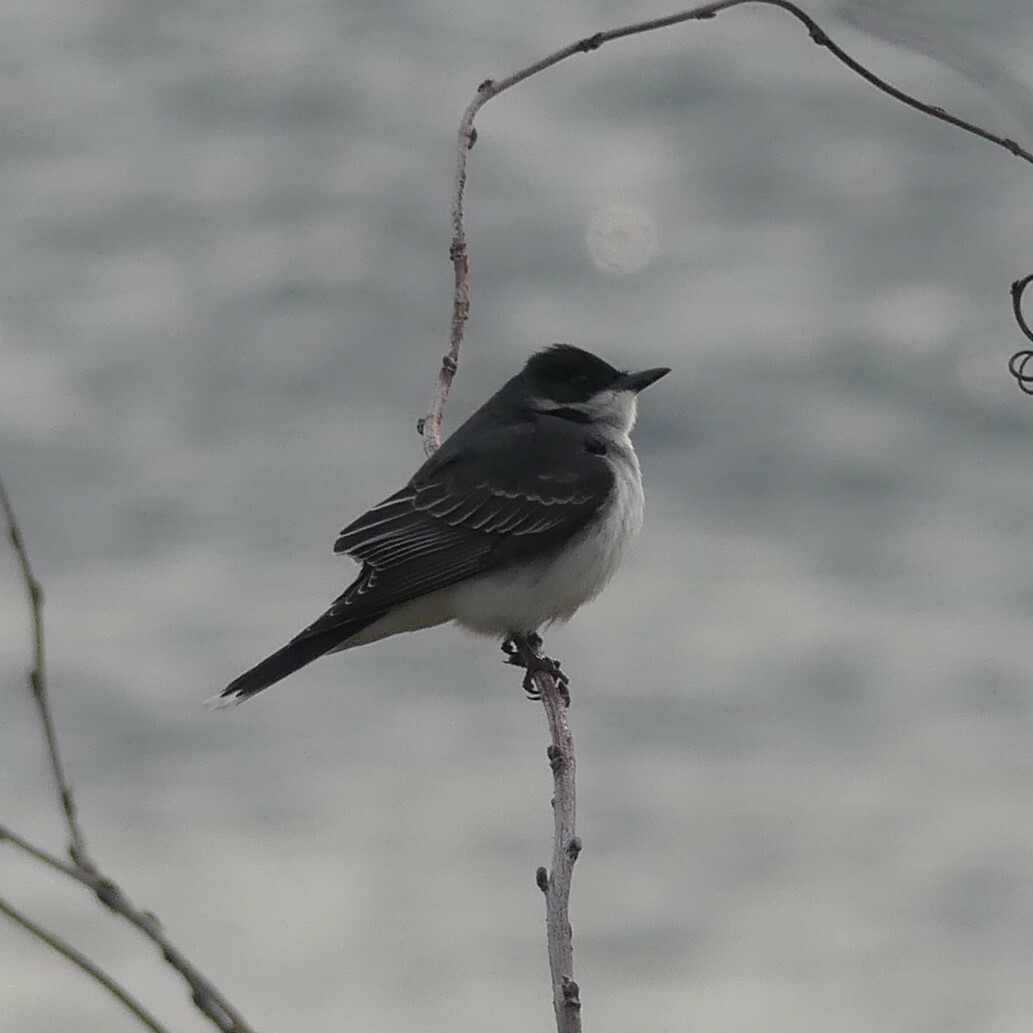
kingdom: Animalia
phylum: Chordata
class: Aves
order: Passeriformes
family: Tyrannidae
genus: Tyrannus
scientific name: Tyrannus tyrannus
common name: Eastern kingbird
